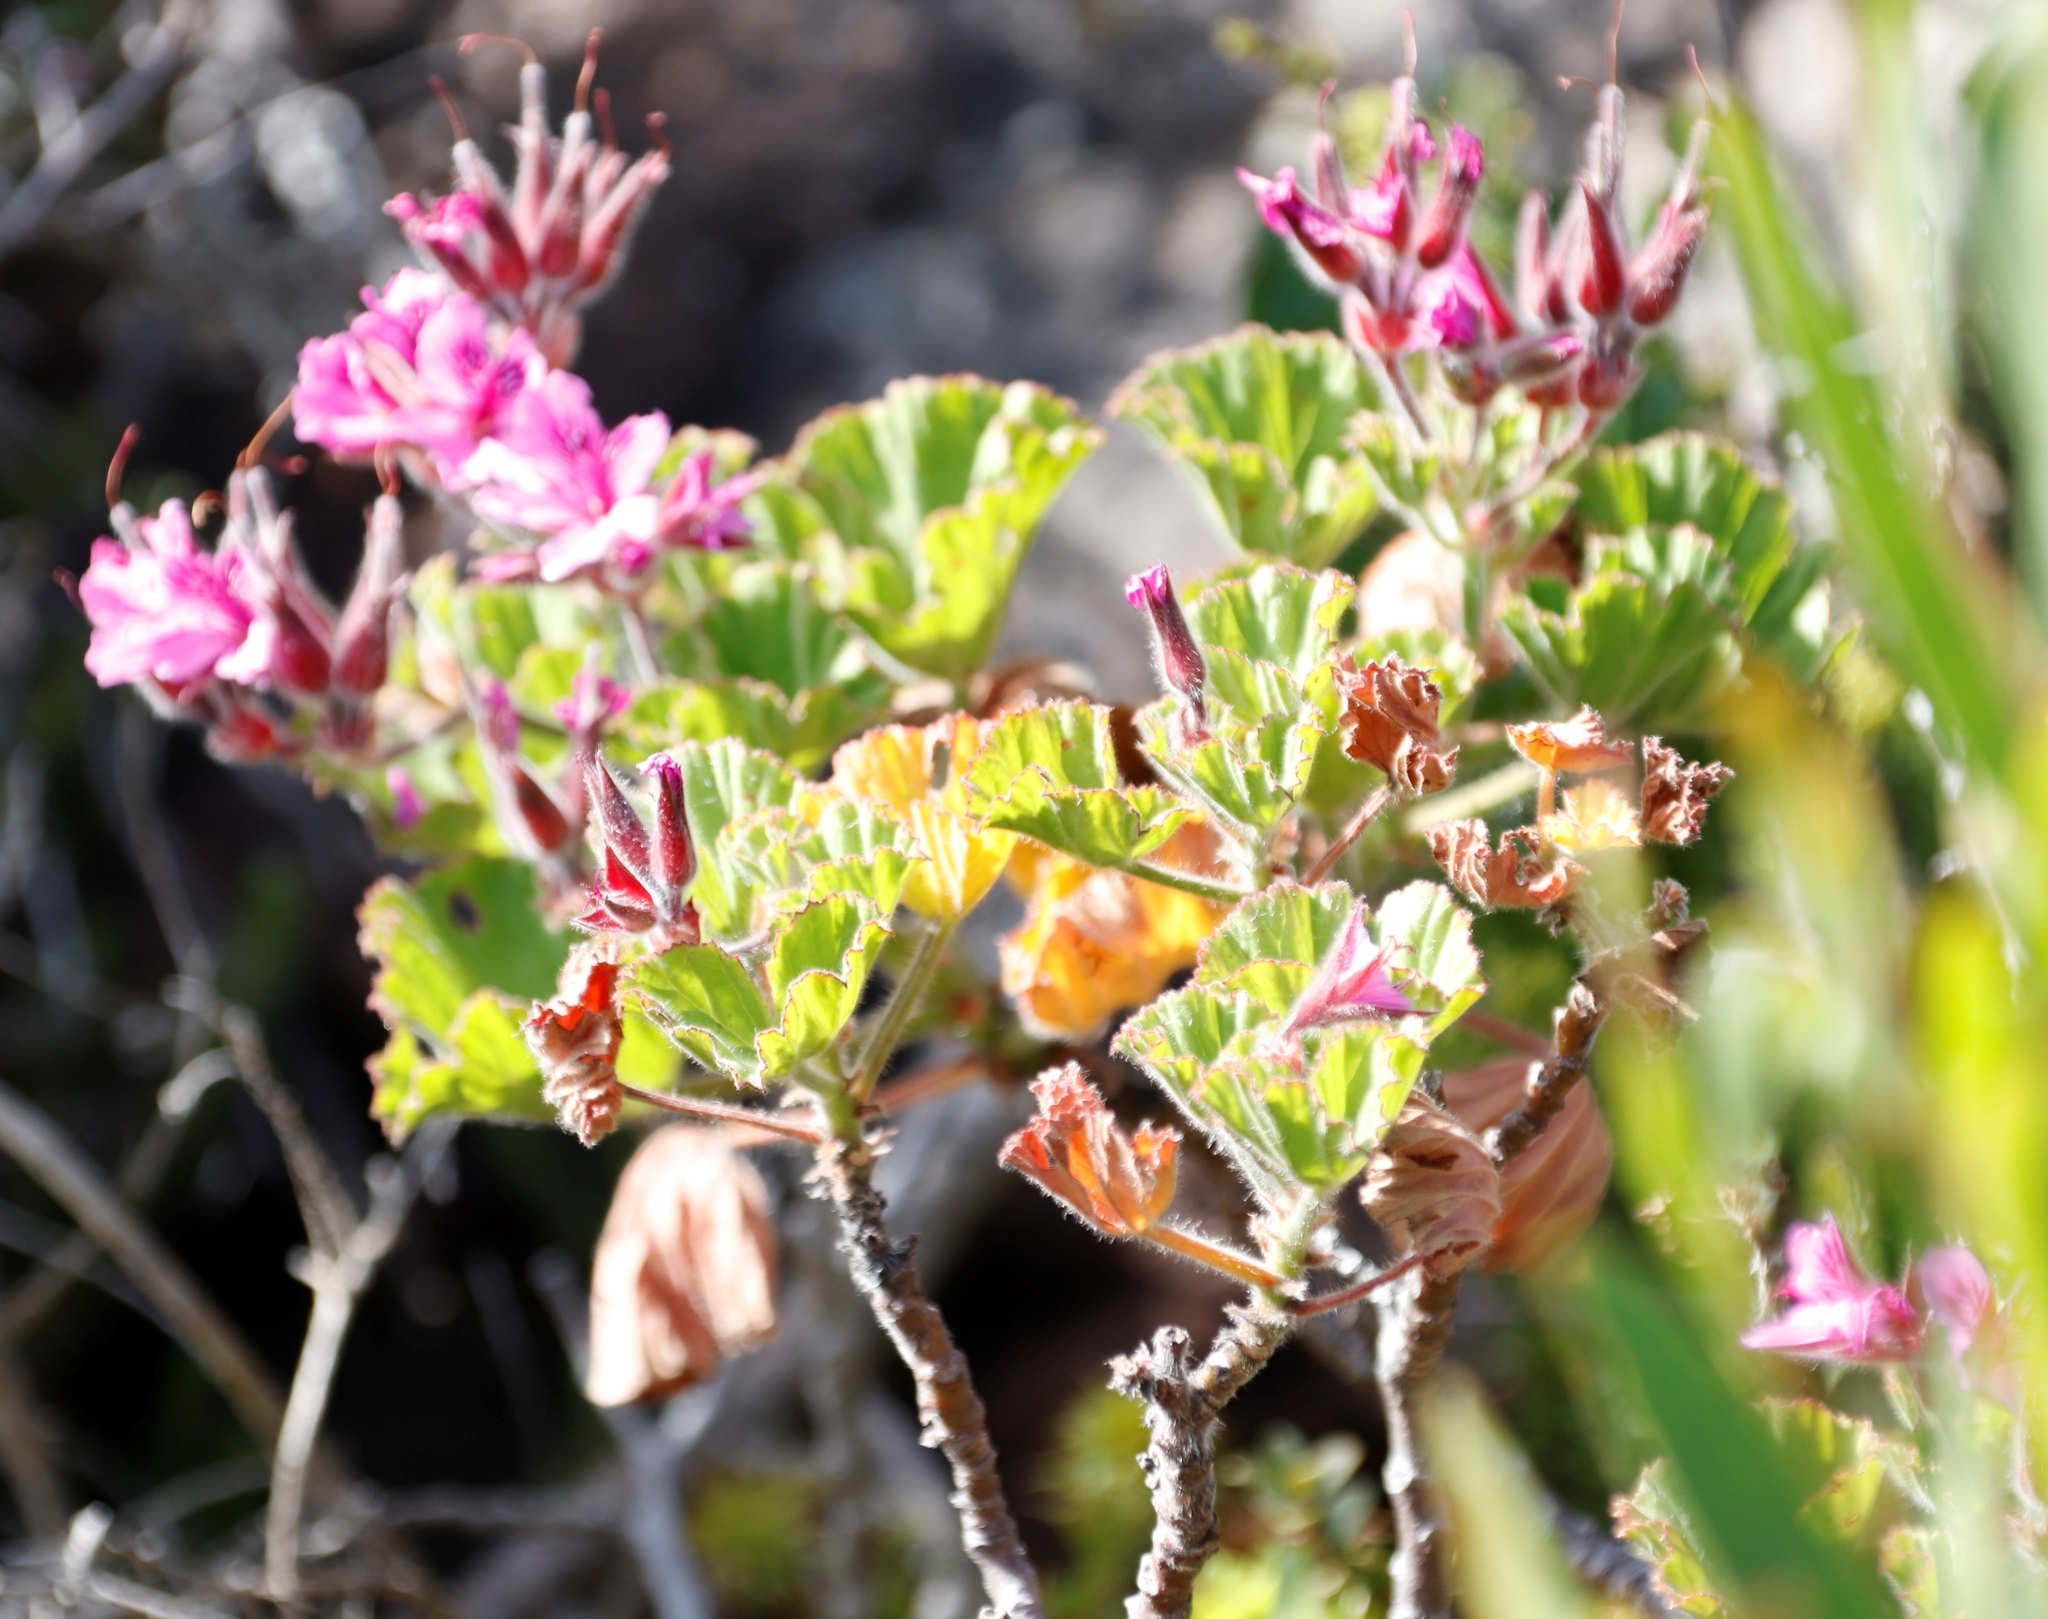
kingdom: Plantae
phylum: Tracheophyta
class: Magnoliopsida
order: Geraniales
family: Geraniaceae
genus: Pelargonium
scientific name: Pelargonium cucullatum
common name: Tree pelargonium
